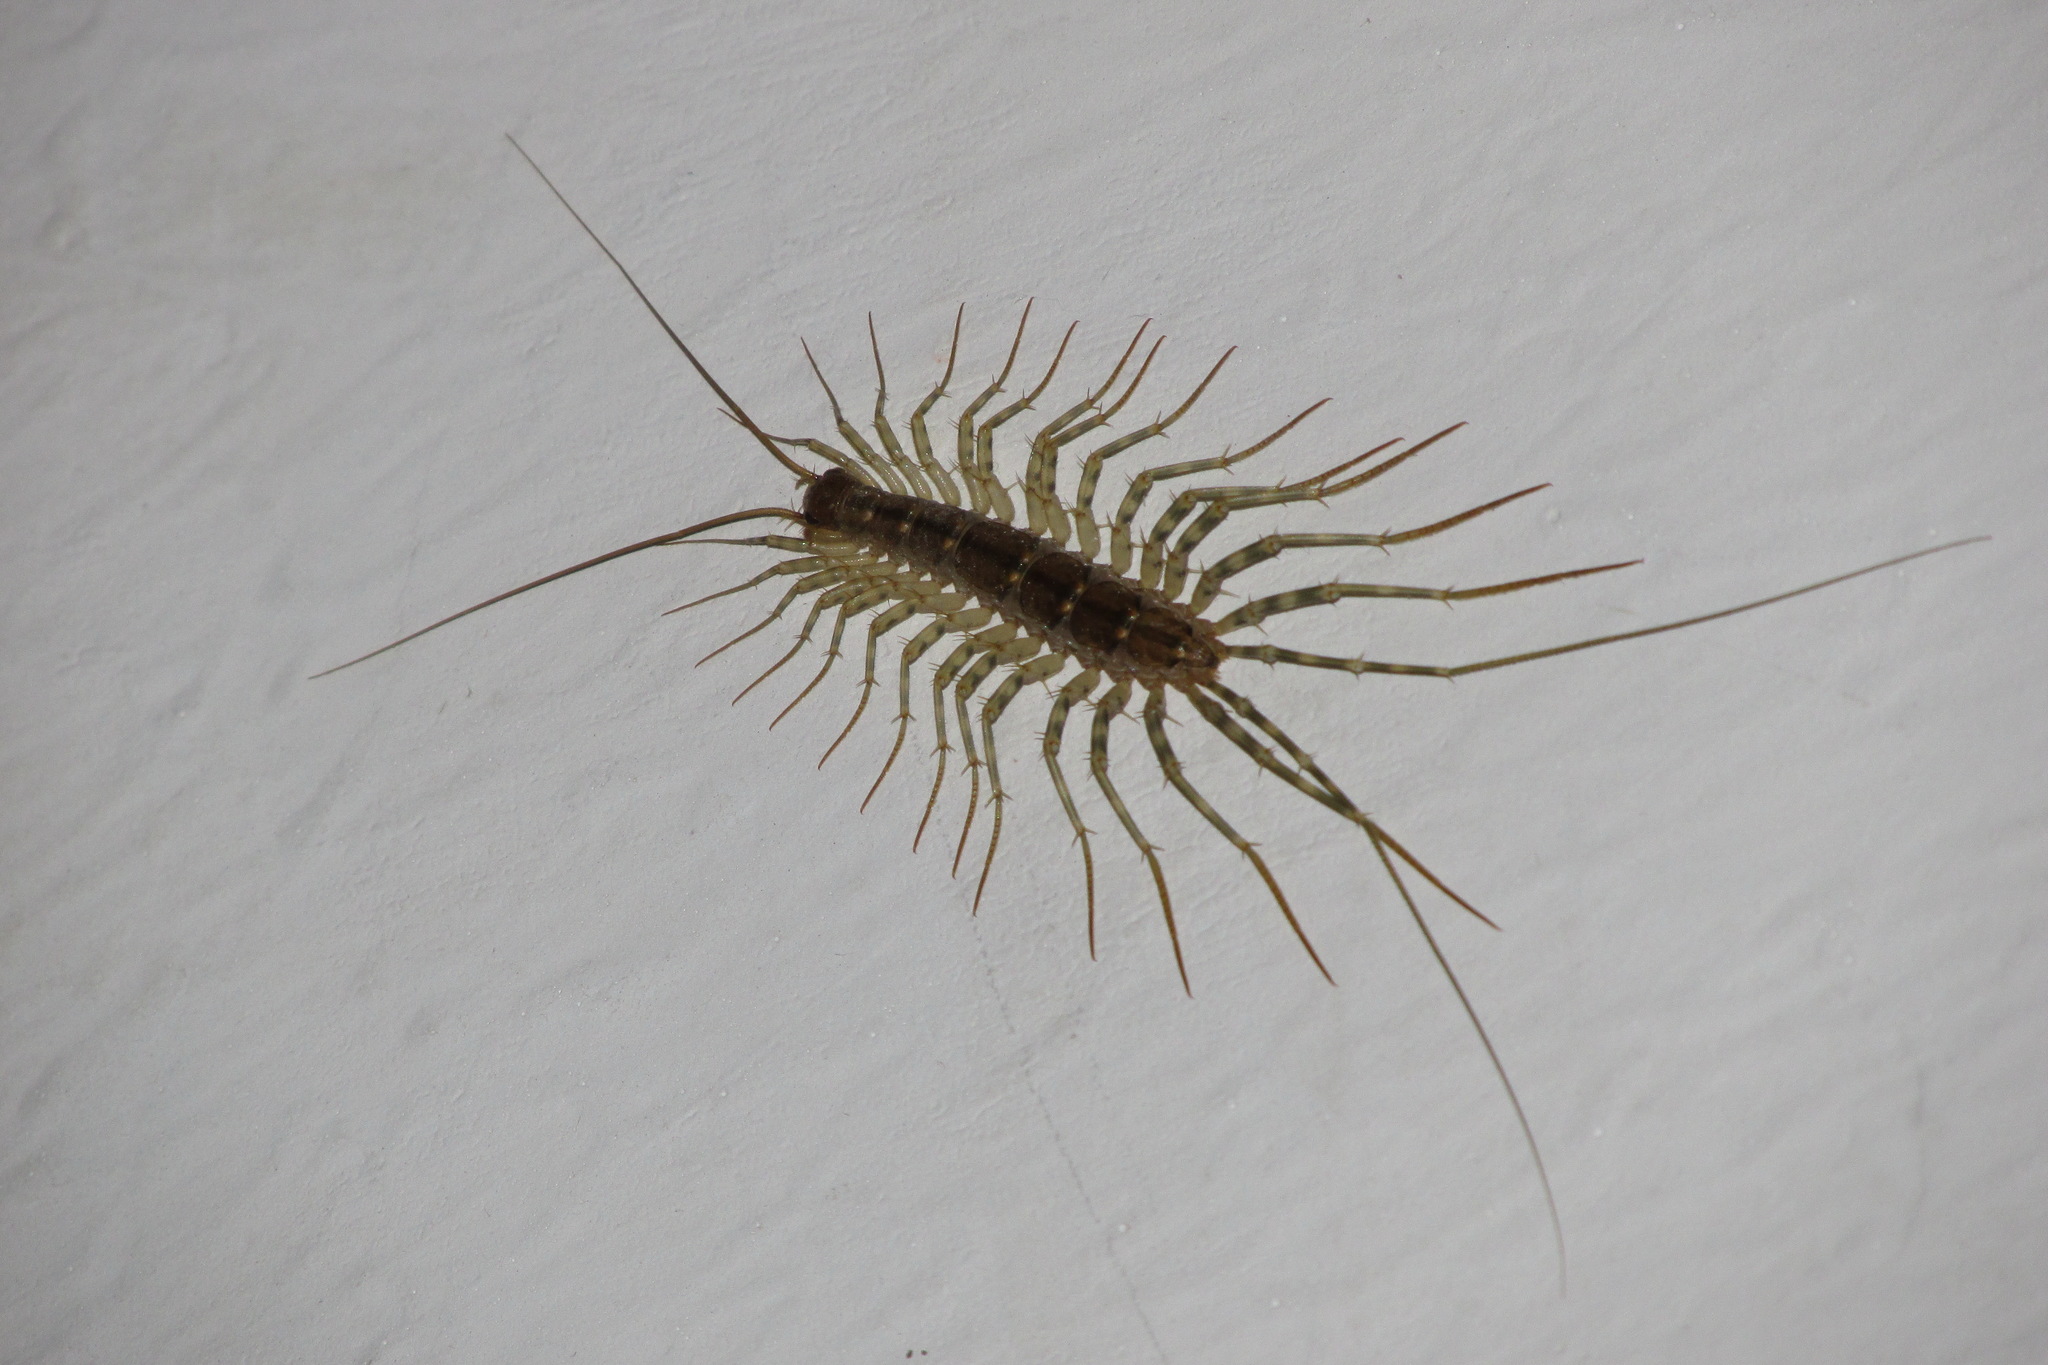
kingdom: Animalia
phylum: Arthropoda
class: Chilopoda
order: Scutigeromorpha
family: Scutigeridae
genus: Scutigera
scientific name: Scutigera coleoptrata
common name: House centipede
